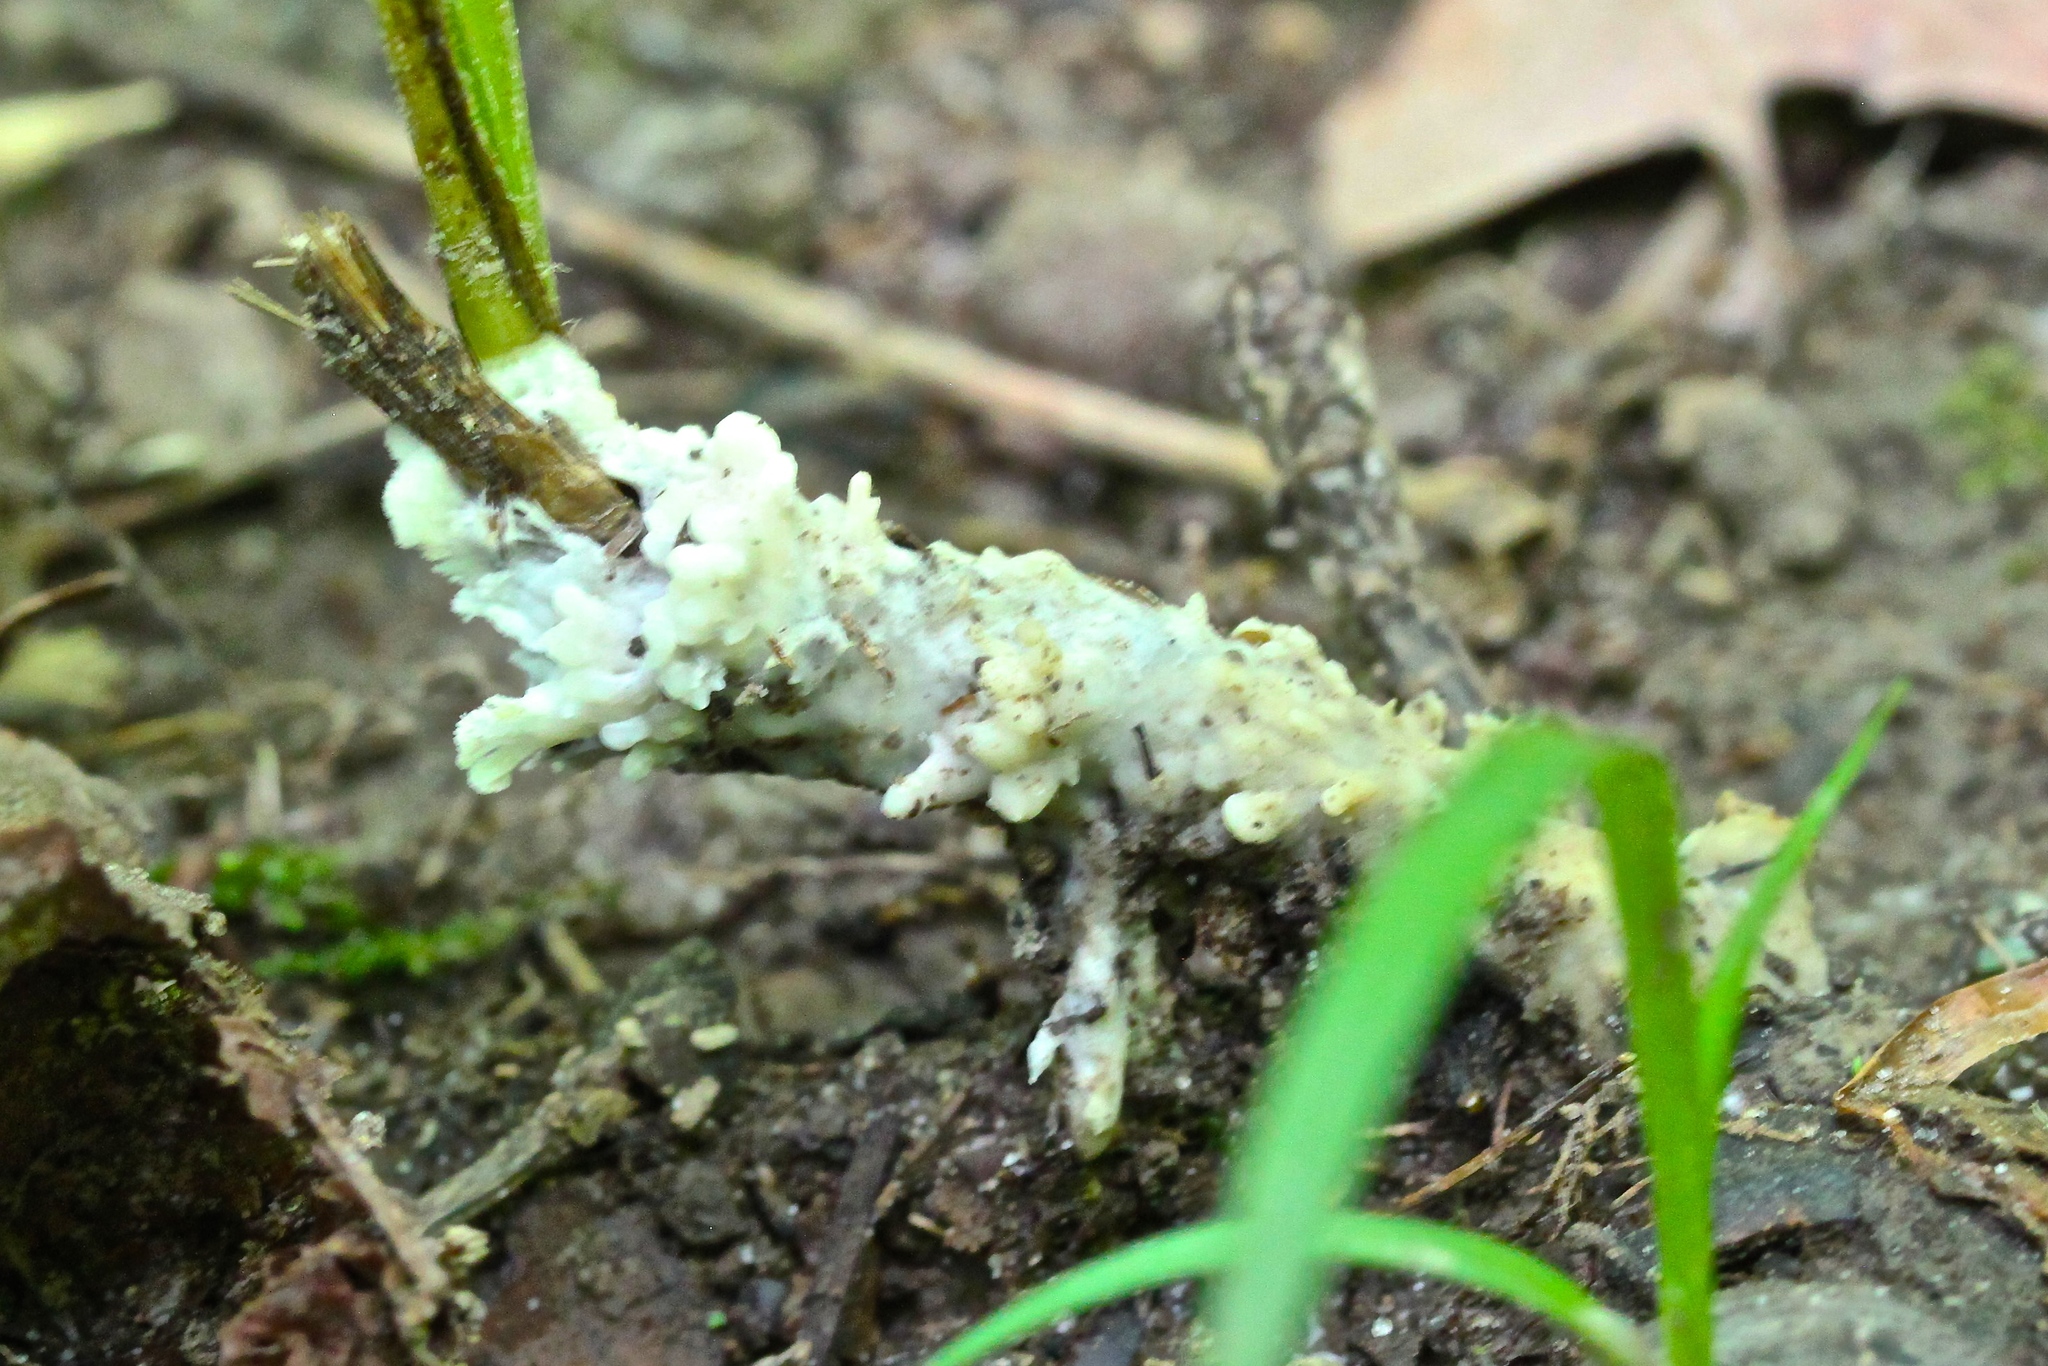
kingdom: Fungi
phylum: Basidiomycota
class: Agaricomycetes
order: Sebacinales
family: Sebacinaceae
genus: Sebacina
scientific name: Sebacina incrustans
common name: Enveloping crust
